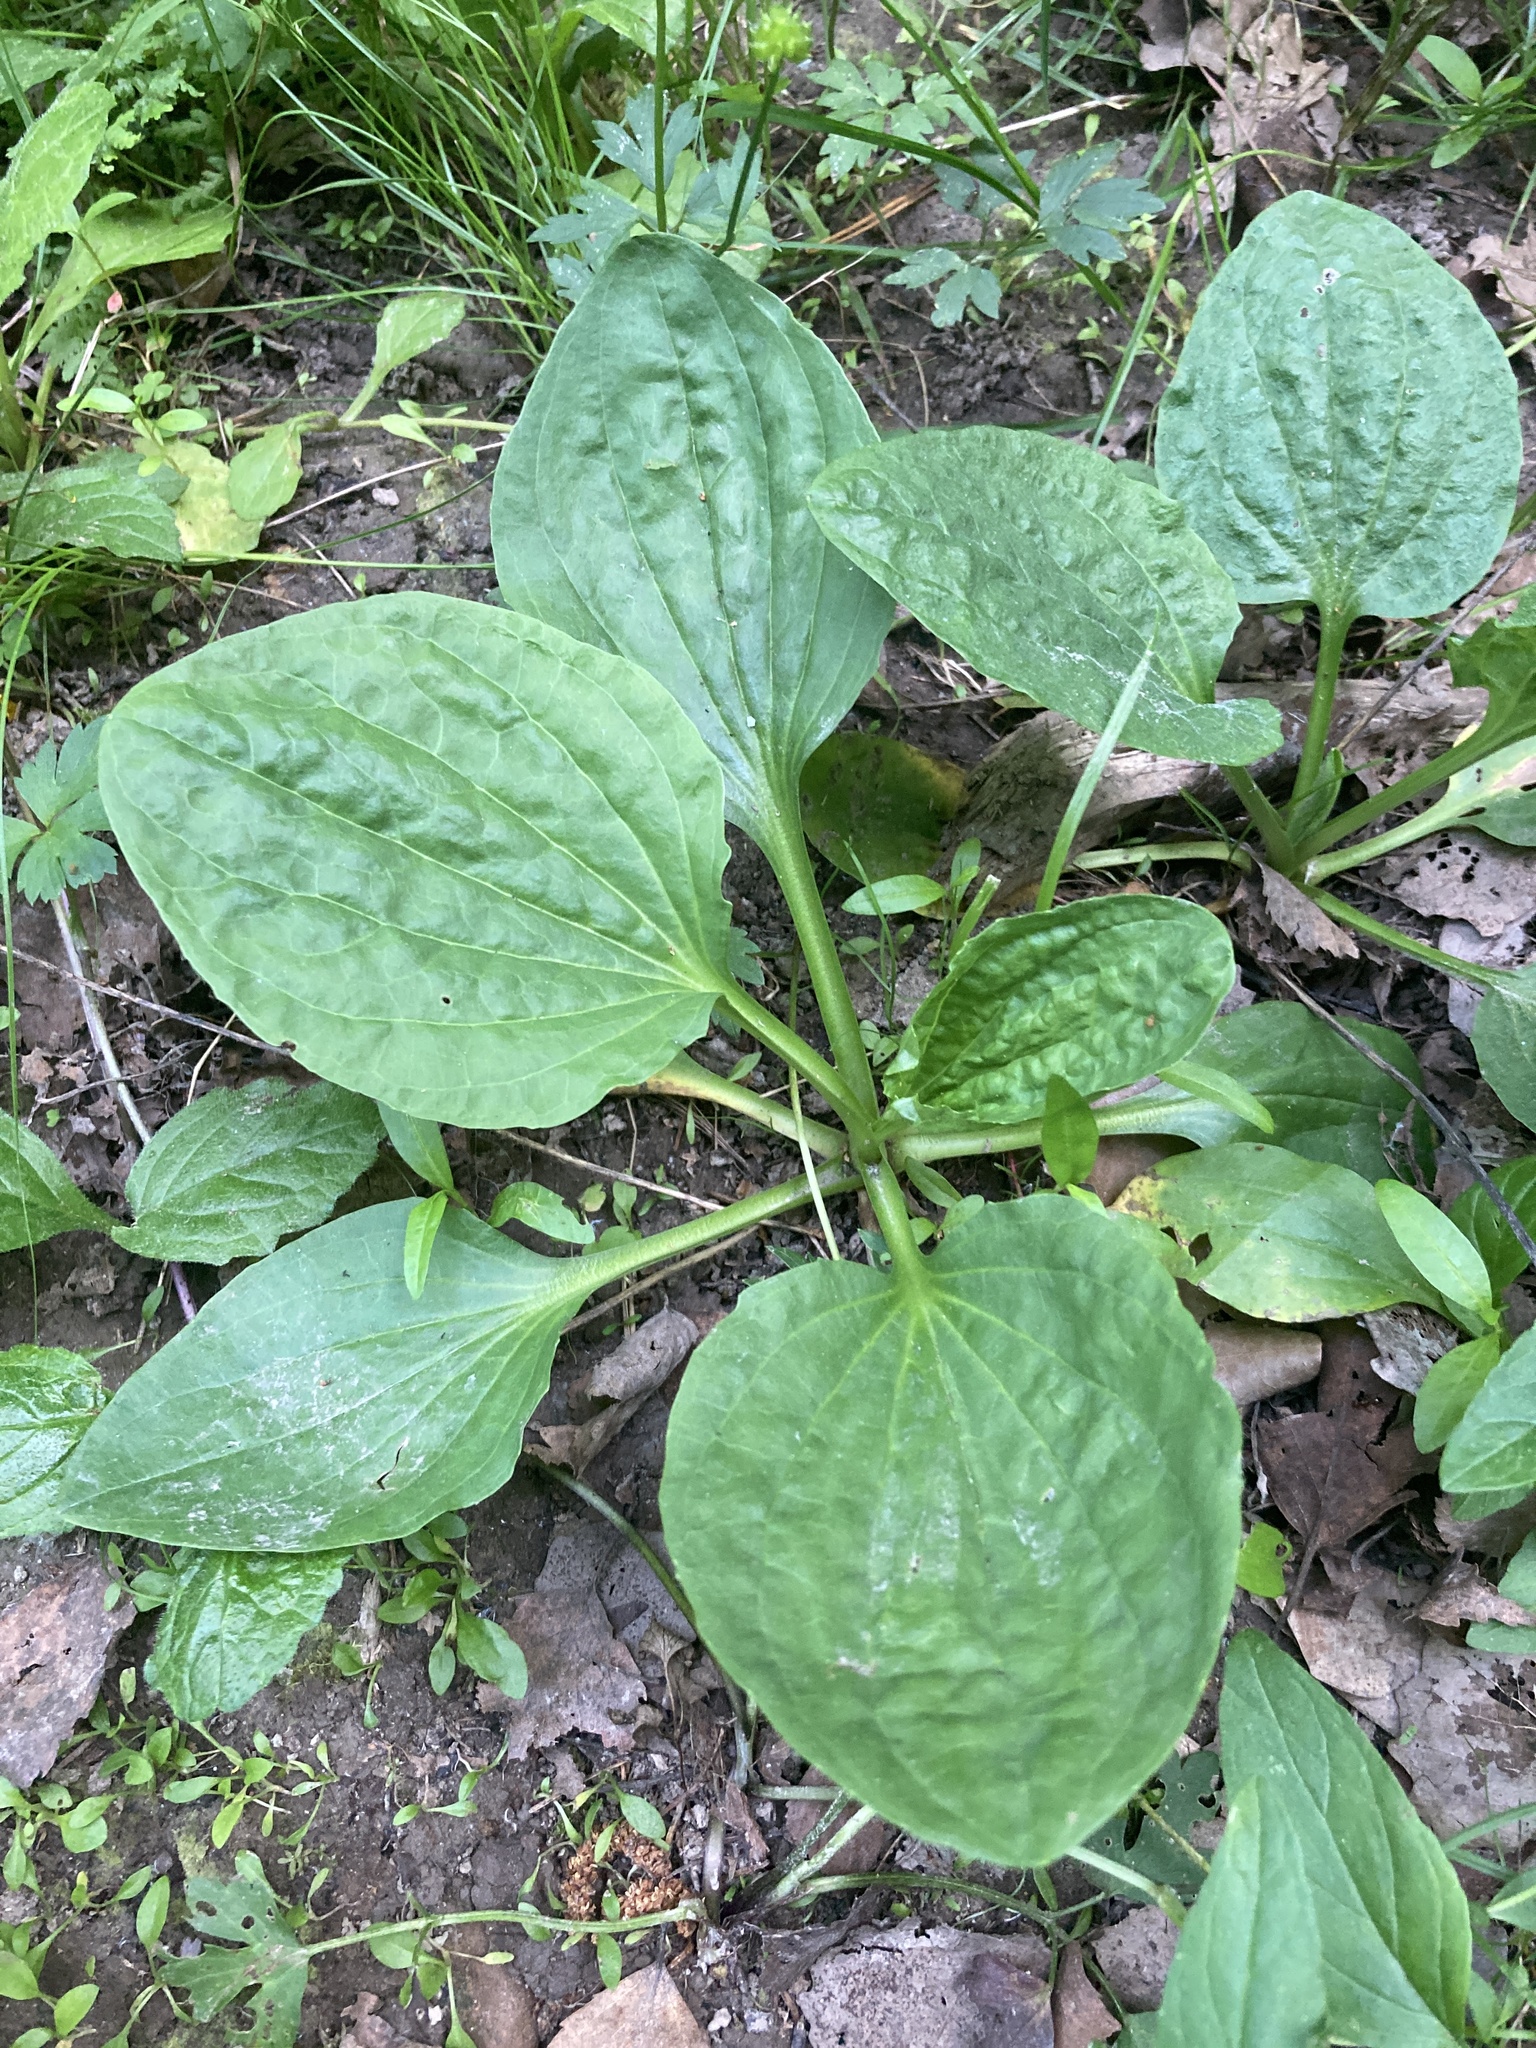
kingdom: Plantae
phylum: Tracheophyta
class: Magnoliopsida
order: Lamiales
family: Plantaginaceae
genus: Plantago
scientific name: Plantago major
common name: Common plantain
